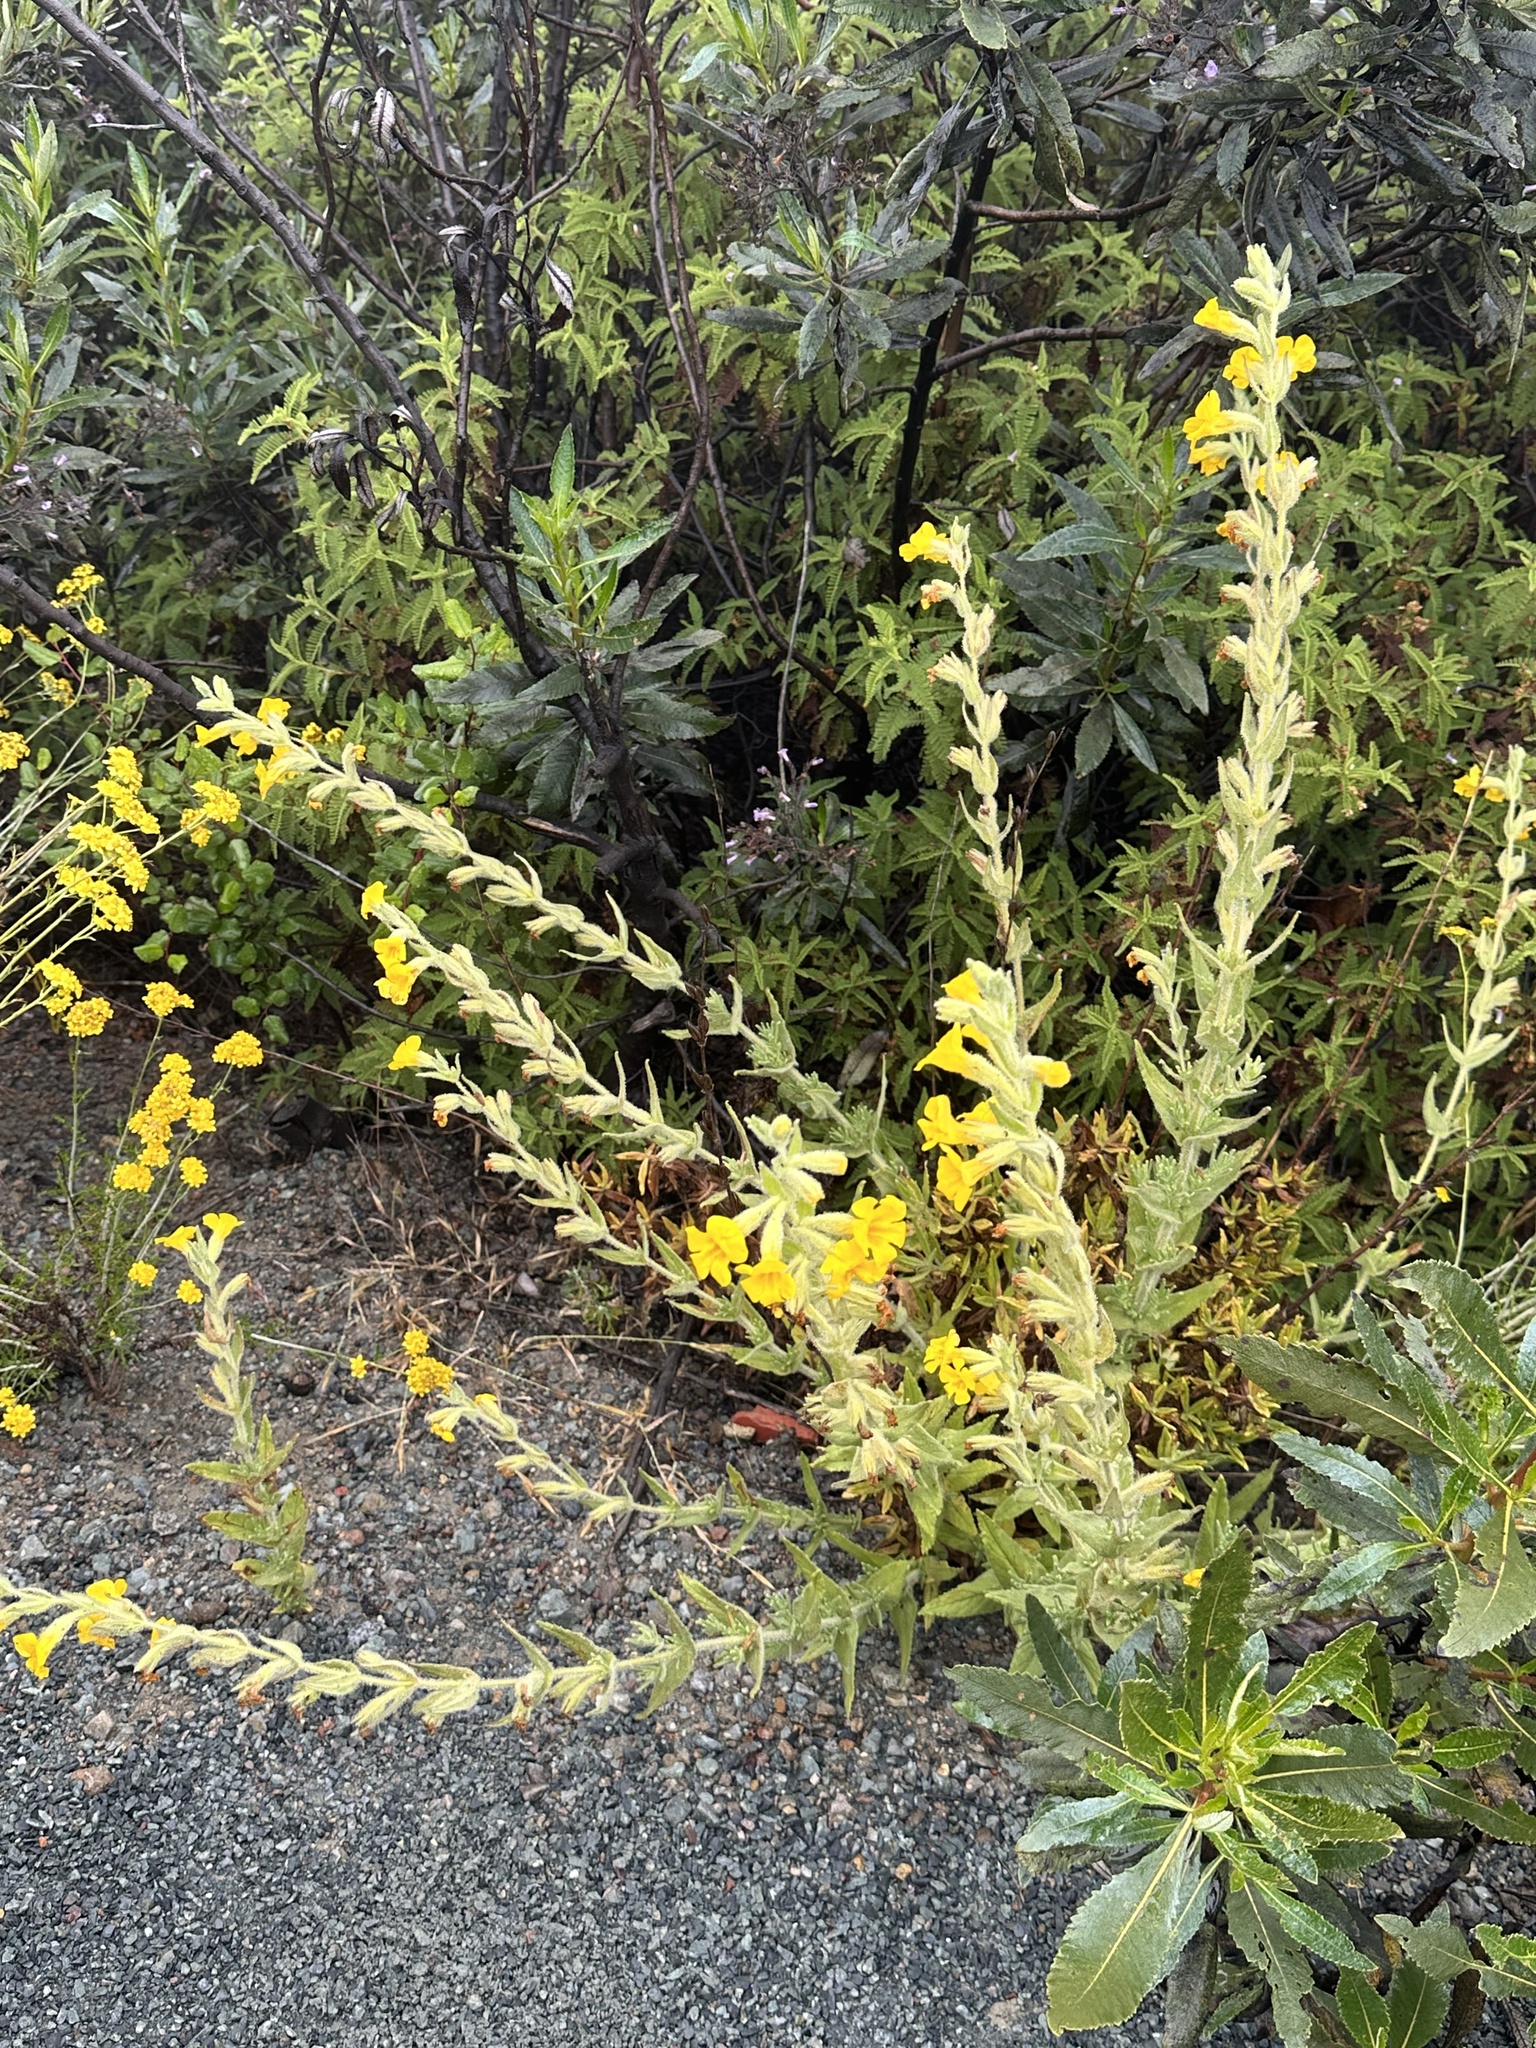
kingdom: Plantae
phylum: Tracheophyta
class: Magnoliopsida
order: Lamiales
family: Phrymaceae
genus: Diplacus
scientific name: Diplacus clevelandii
